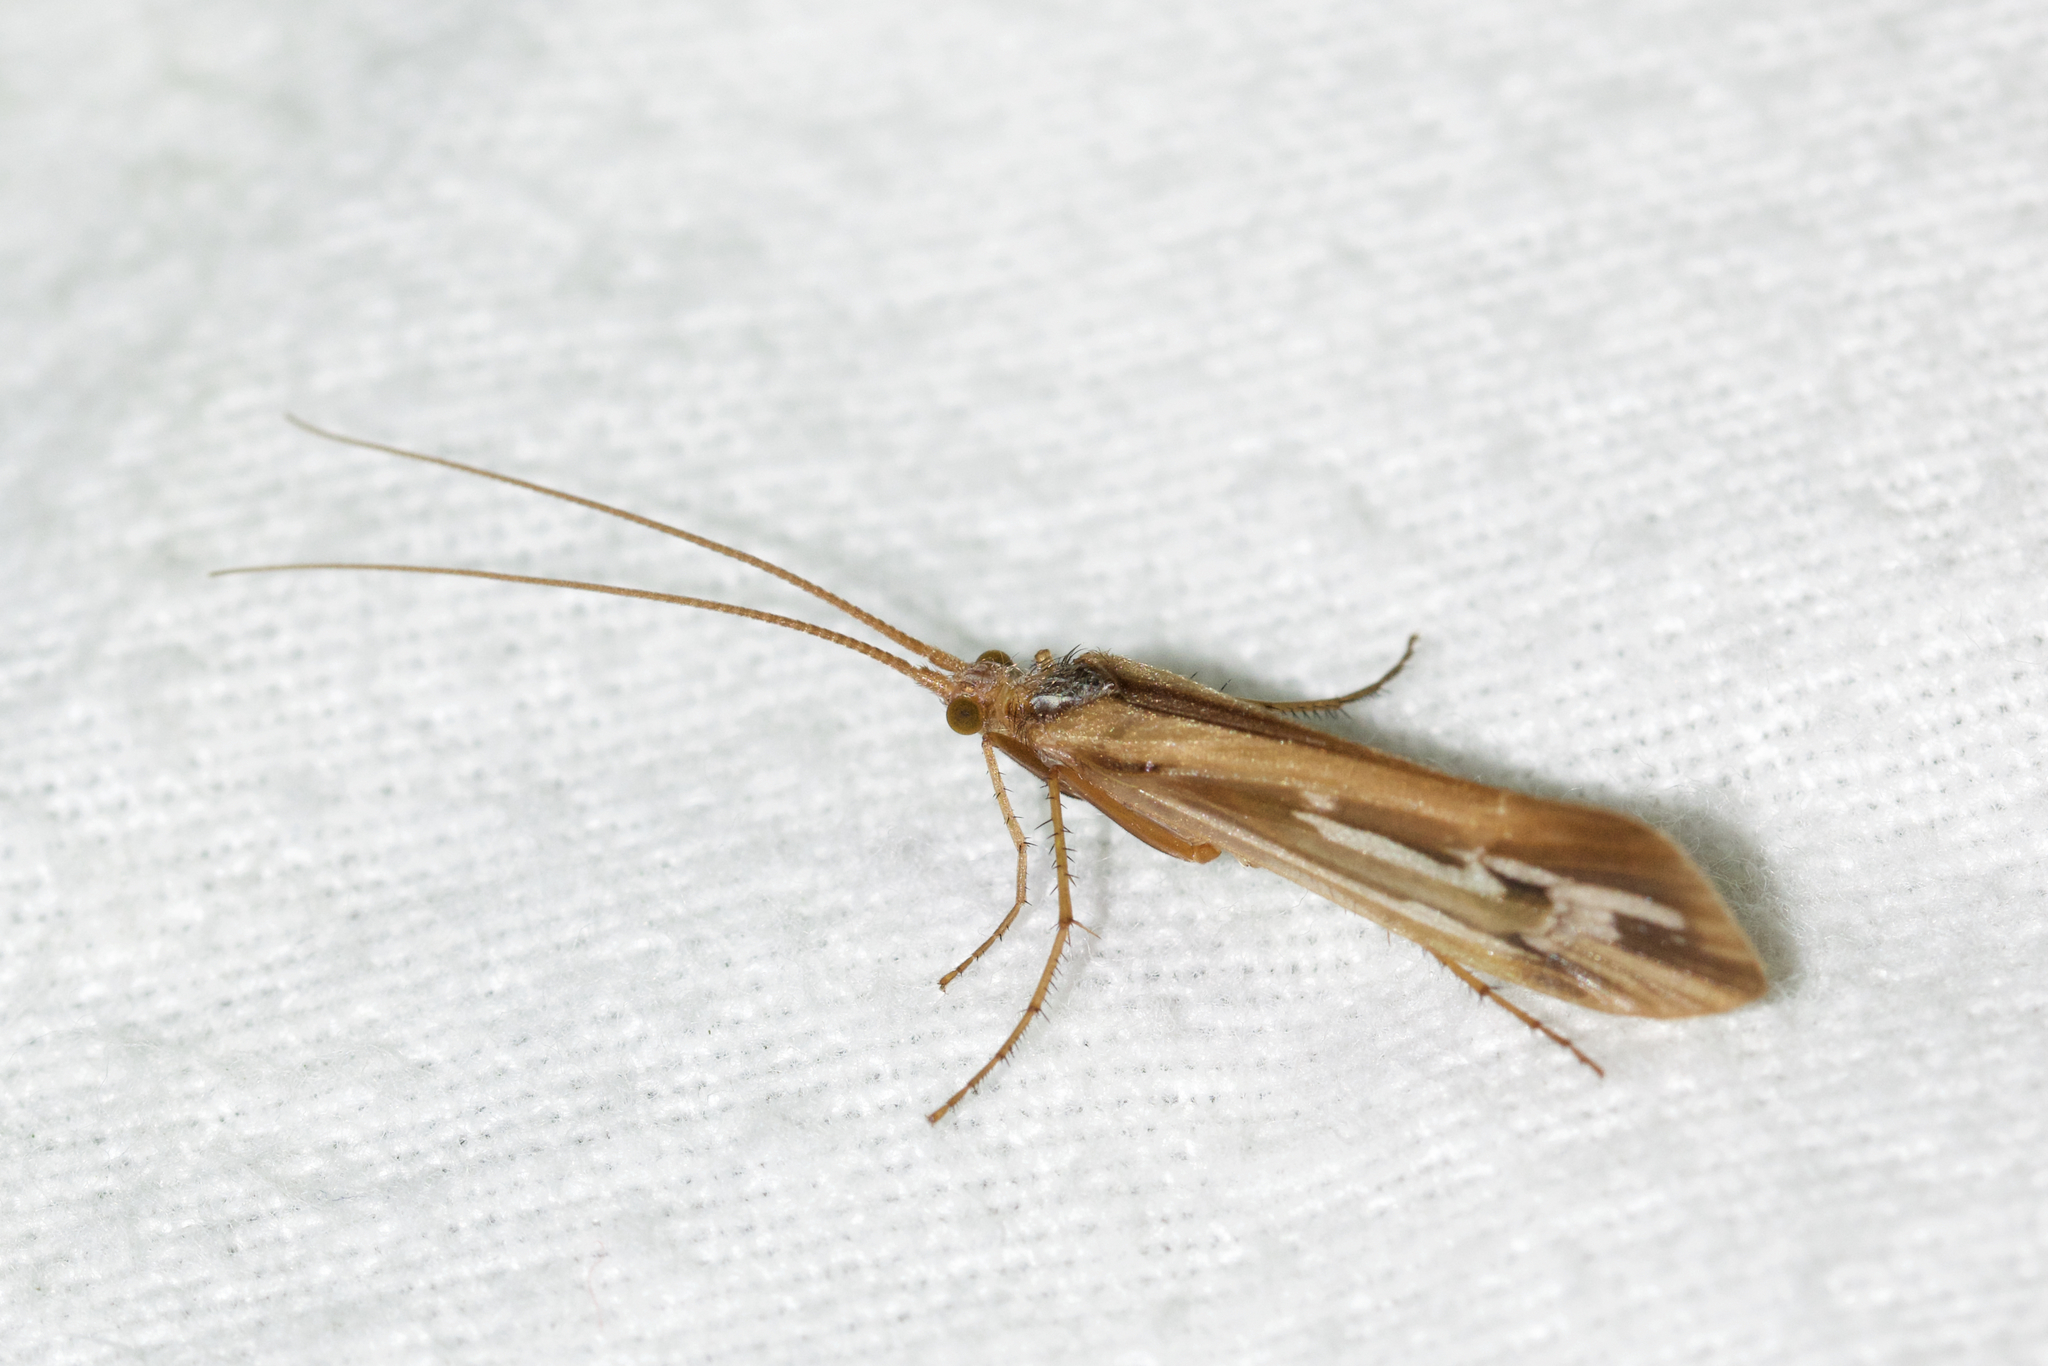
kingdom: Animalia
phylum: Arthropoda
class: Insecta
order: Trichoptera
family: Limnephilidae
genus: Limnephilus
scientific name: Limnephilus ornatus
